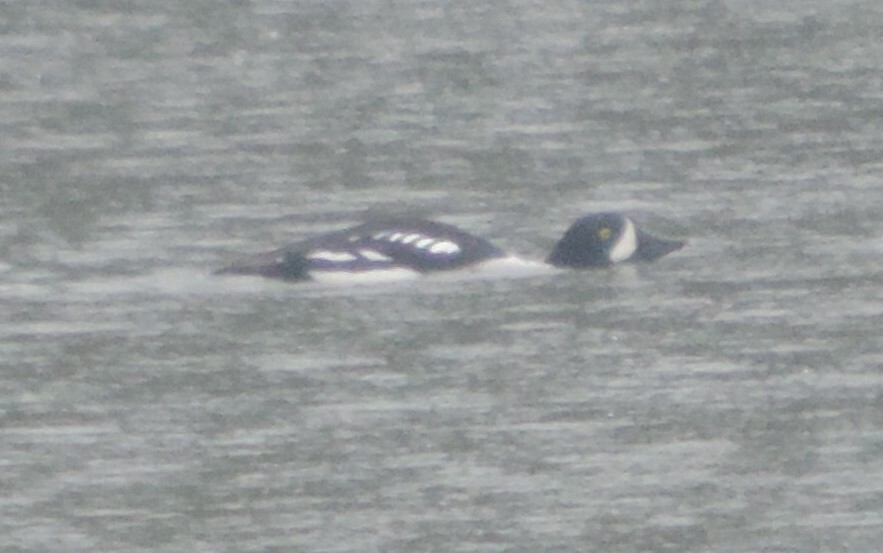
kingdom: Animalia
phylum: Chordata
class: Aves
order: Anseriformes
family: Anatidae
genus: Bucephala
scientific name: Bucephala islandica
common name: Barrow's goldeneye
